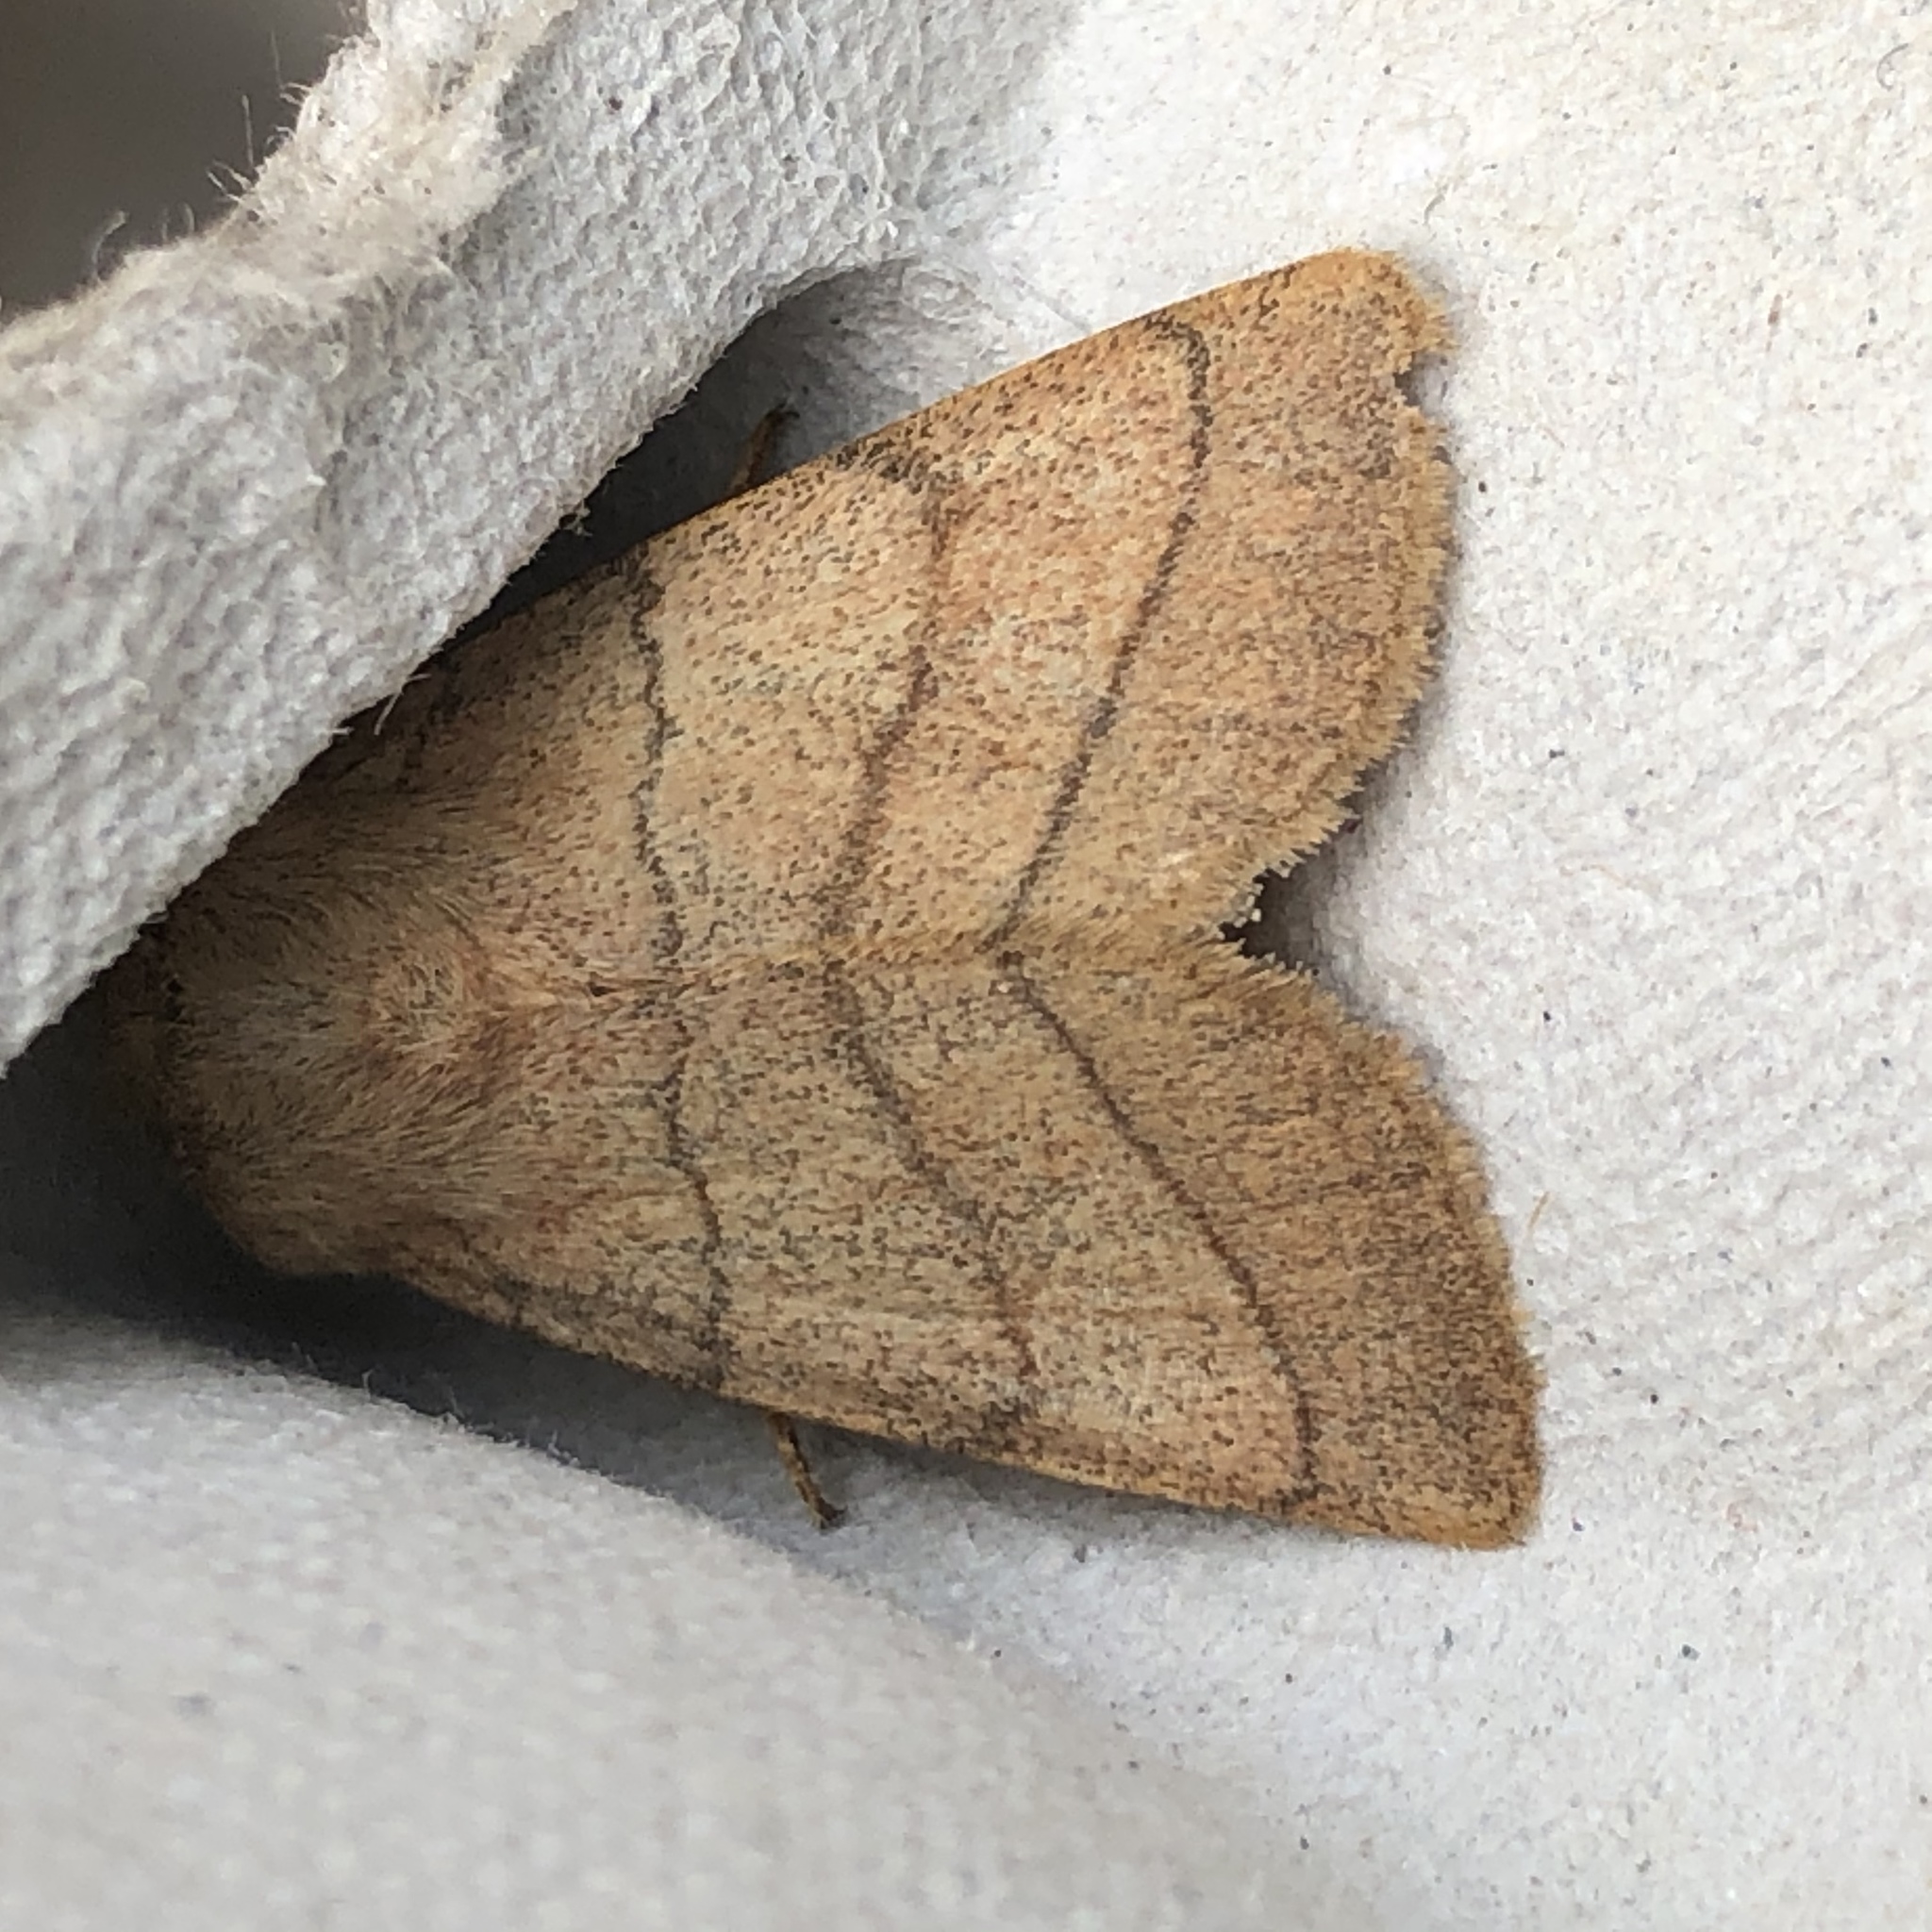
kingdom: Animalia
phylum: Arthropoda
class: Insecta
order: Lepidoptera
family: Noctuidae
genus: Charanyca
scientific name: Charanyca trigrammica
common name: Treble lines
